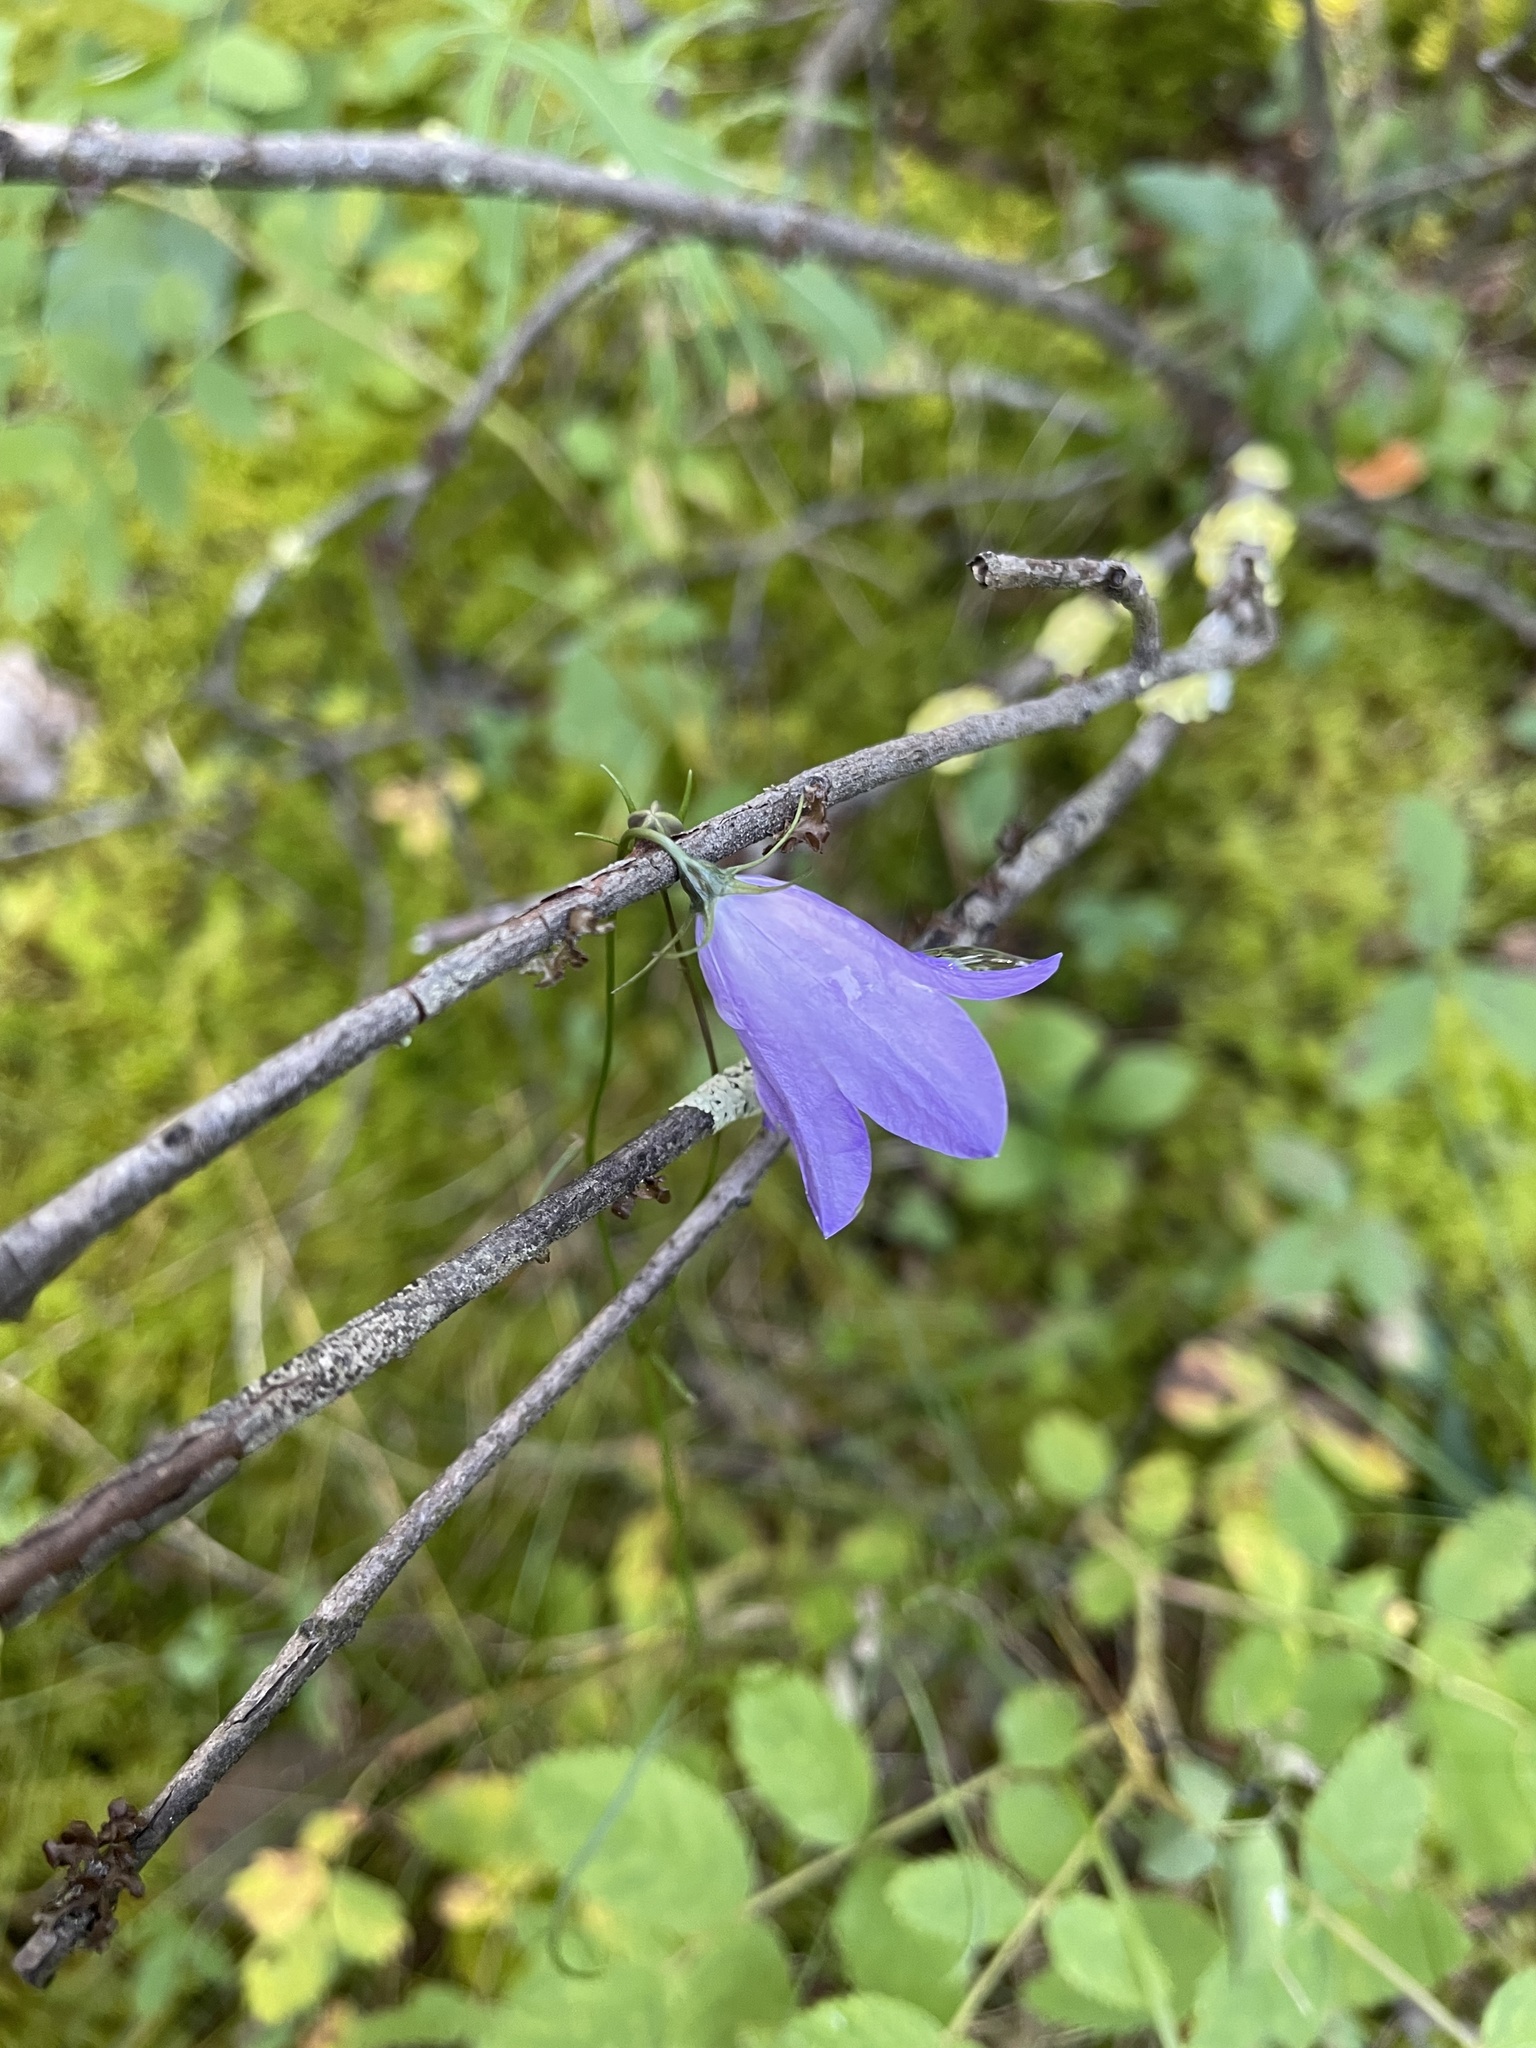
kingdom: Plantae
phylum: Tracheophyta
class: Magnoliopsida
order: Asterales
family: Campanulaceae
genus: Campanula
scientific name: Campanula alaskana
